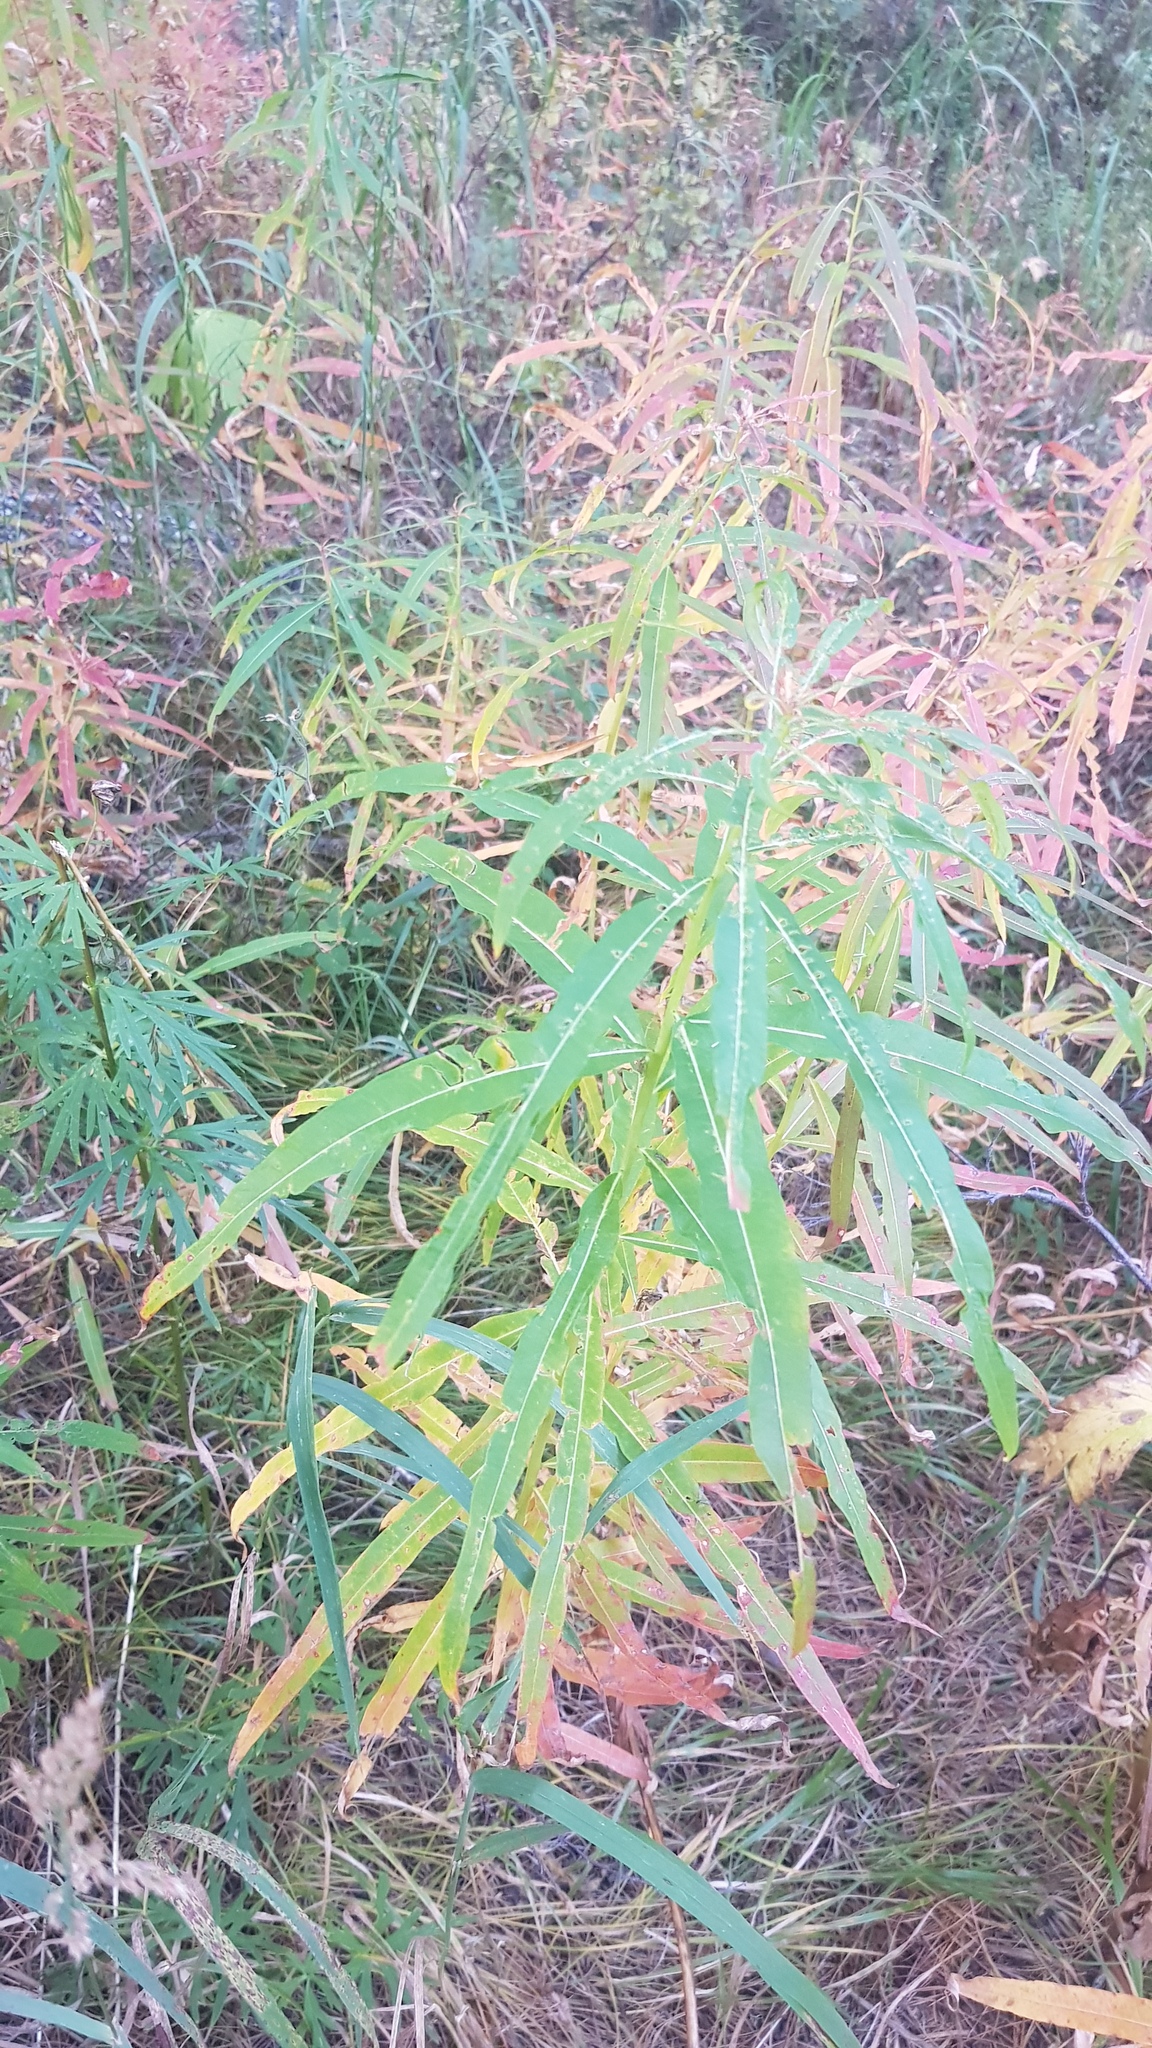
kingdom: Plantae
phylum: Tracheophyta
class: Magnoliopsida
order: Myrtales
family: Onagraceae
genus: Chamaenerion
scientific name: Chamaenerion angustifolium
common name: Fireweed
